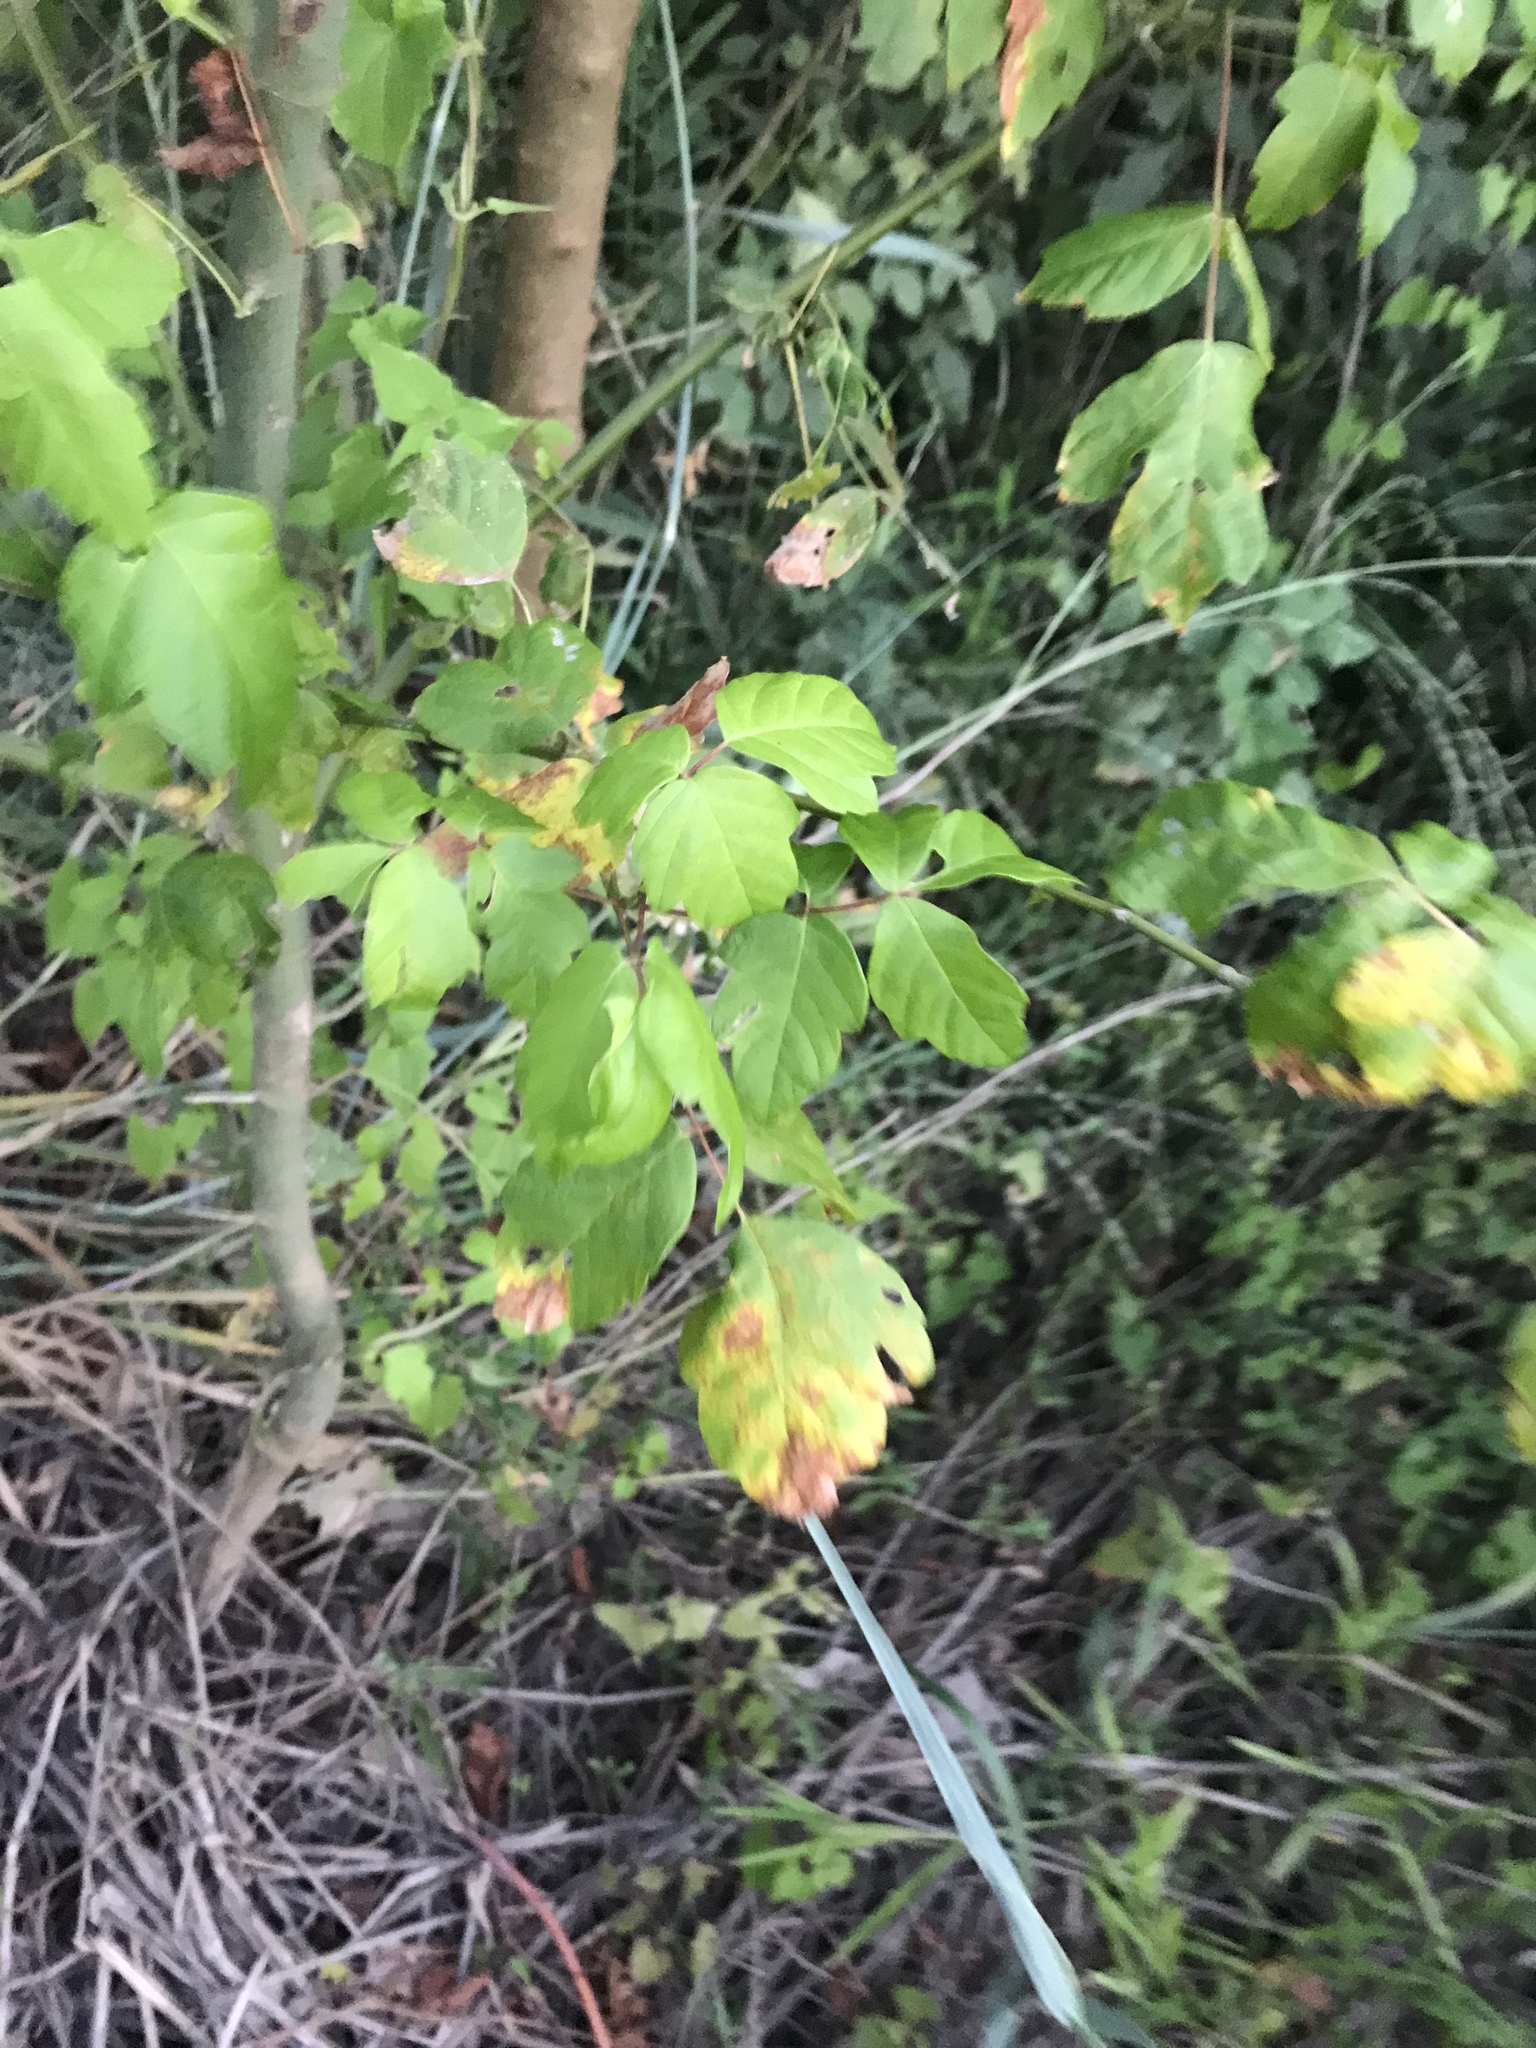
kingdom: Plantae
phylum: Tracheophyta
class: Magnoliopsida
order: Sapindales
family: Sapindaceae
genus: Acer
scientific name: Acer negundo
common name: Ashleaf maple
